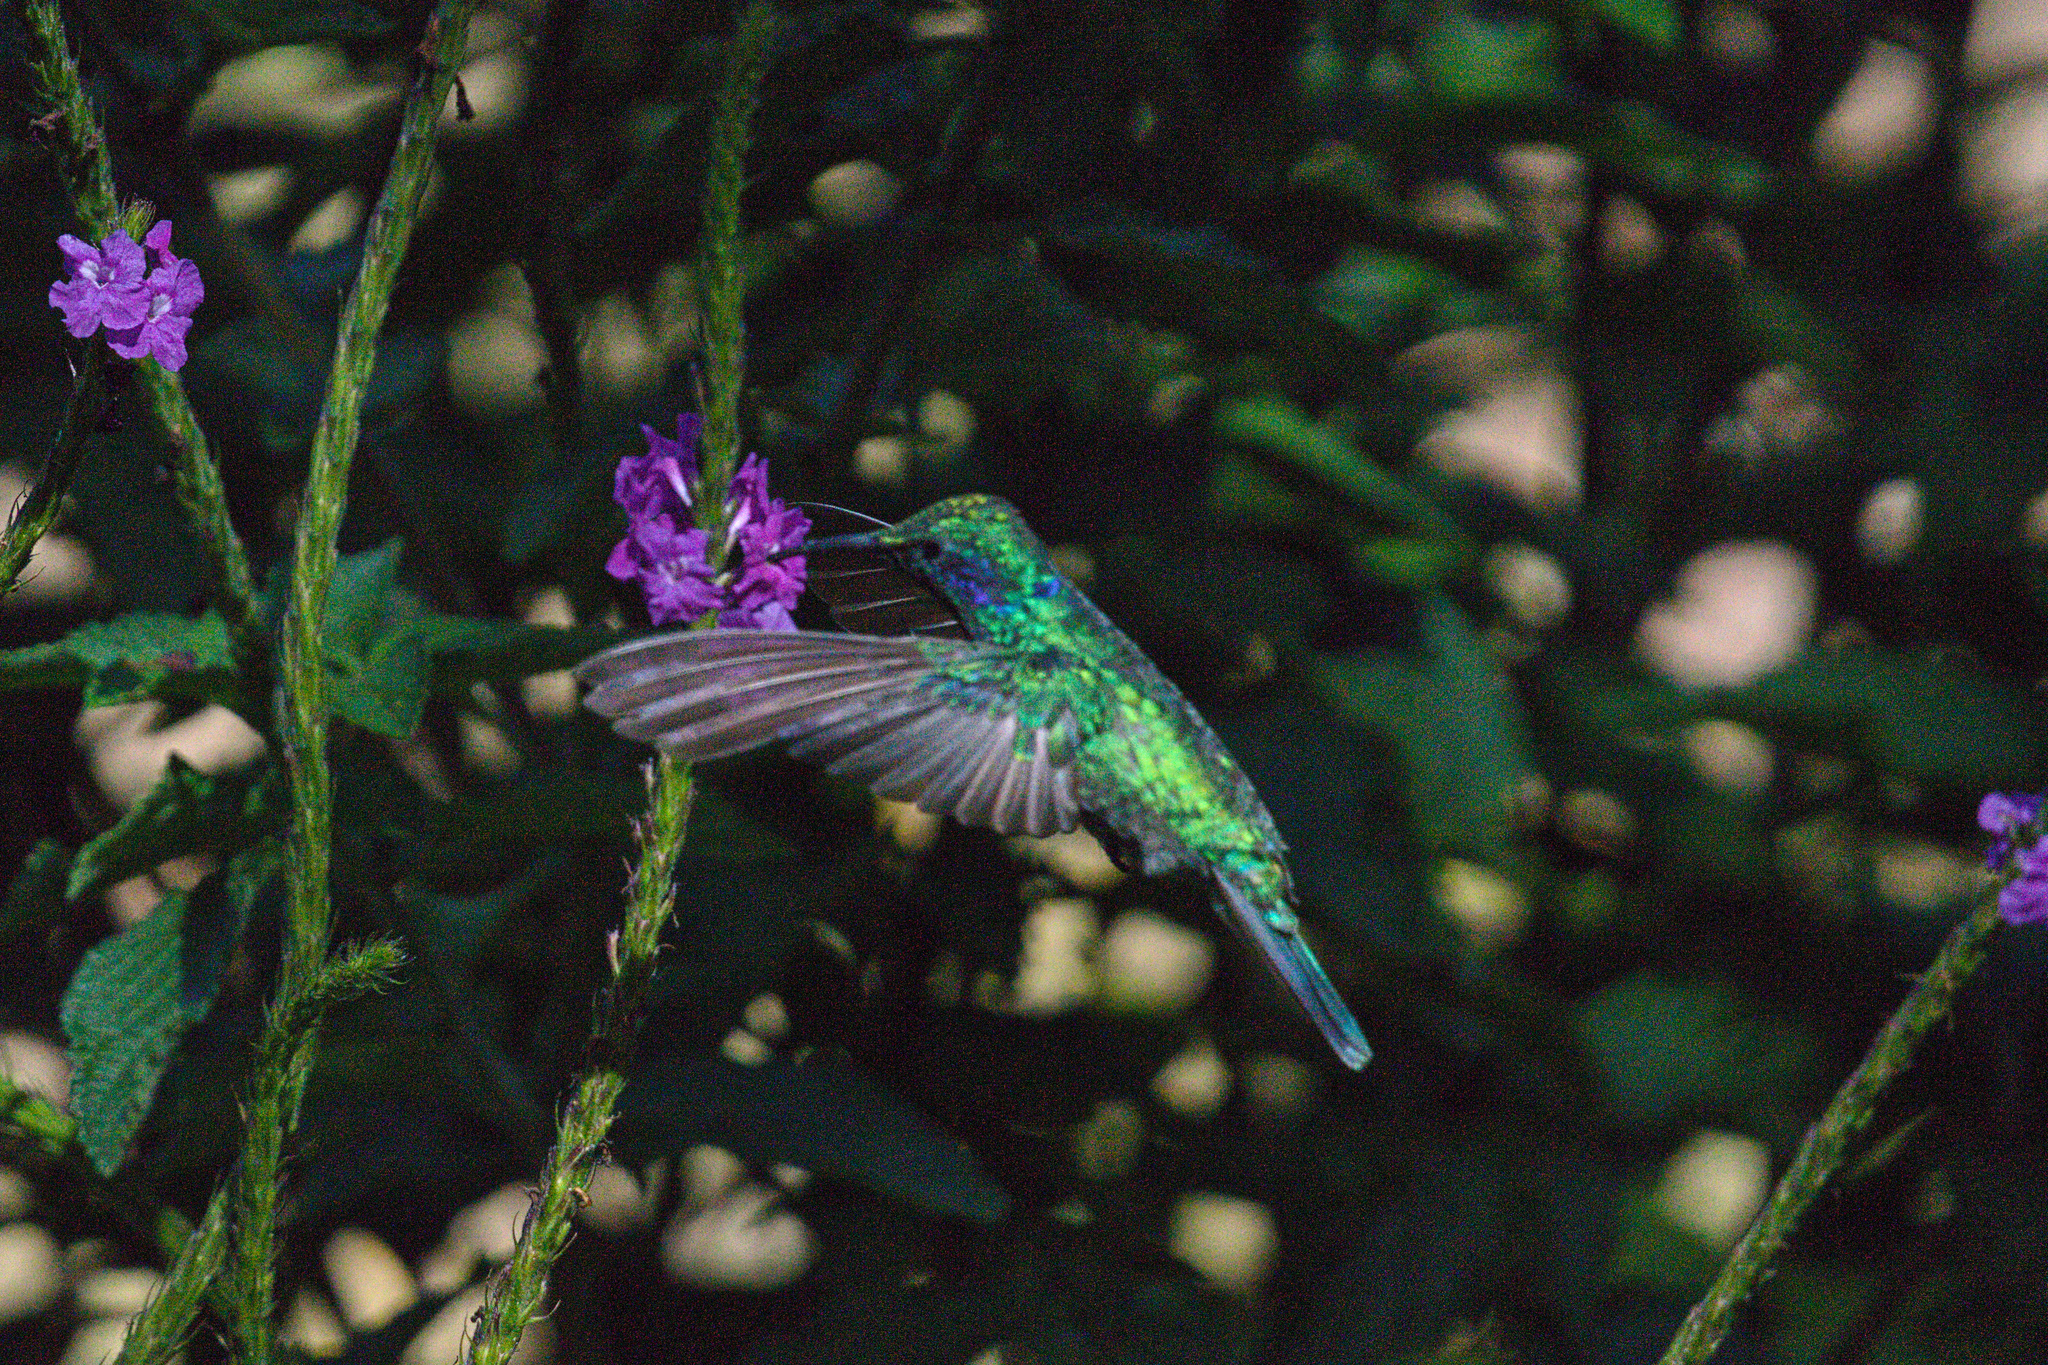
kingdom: Animalia
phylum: Chordata
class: Aves
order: Apodiformes
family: Trochilidae
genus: Colibri
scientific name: Colibri cyanotus
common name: Lesser violetear
